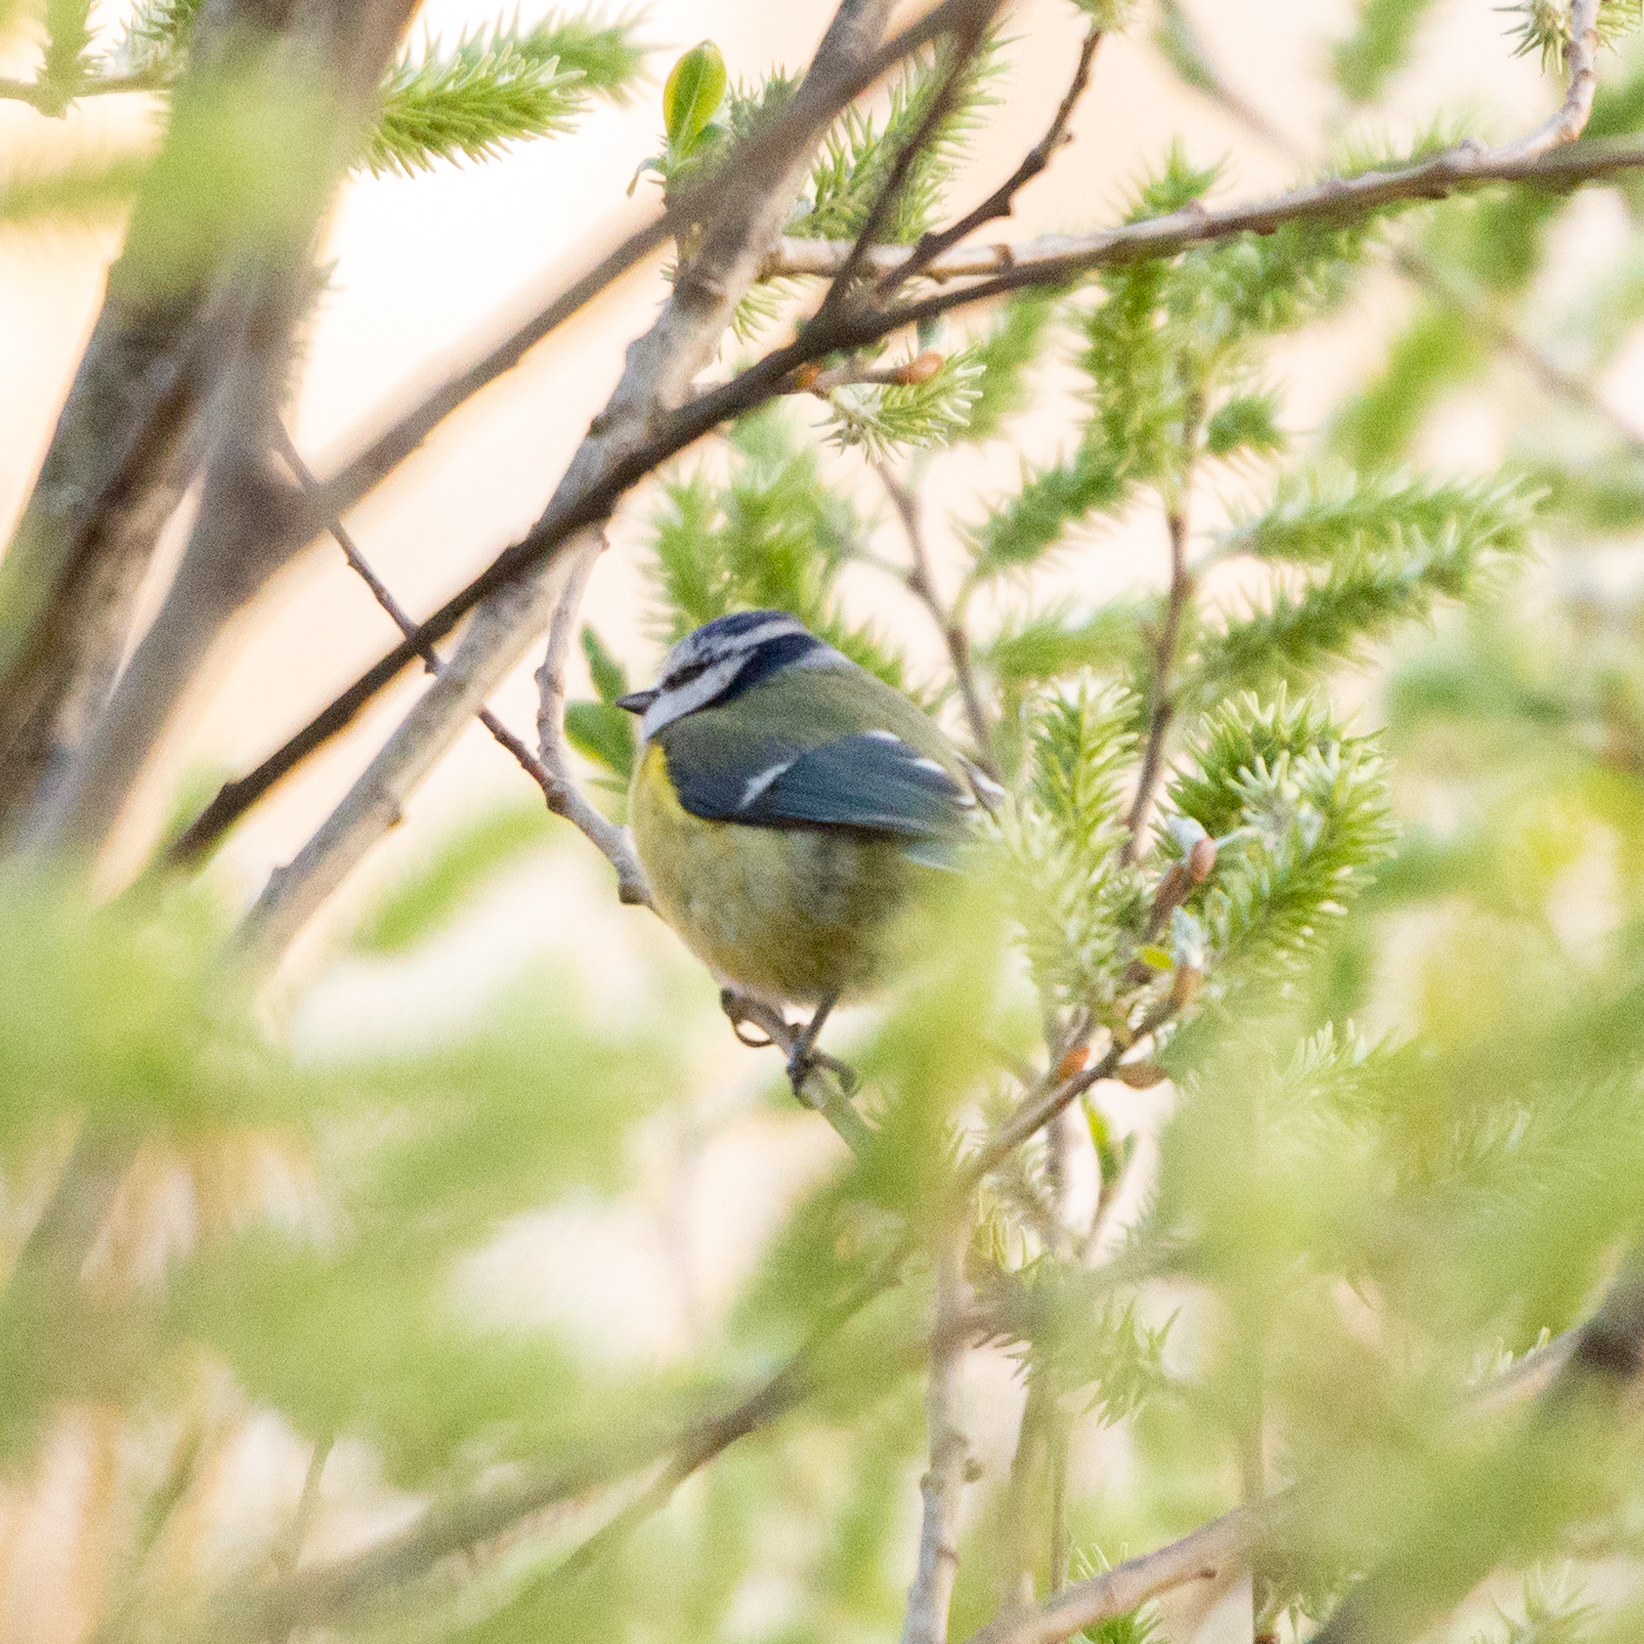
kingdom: Animalia
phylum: Chordata
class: Aves
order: Passeriformes
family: Paridae
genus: Cyanistes
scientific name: Cyanistes caeruleus
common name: Eurasian blue tit
